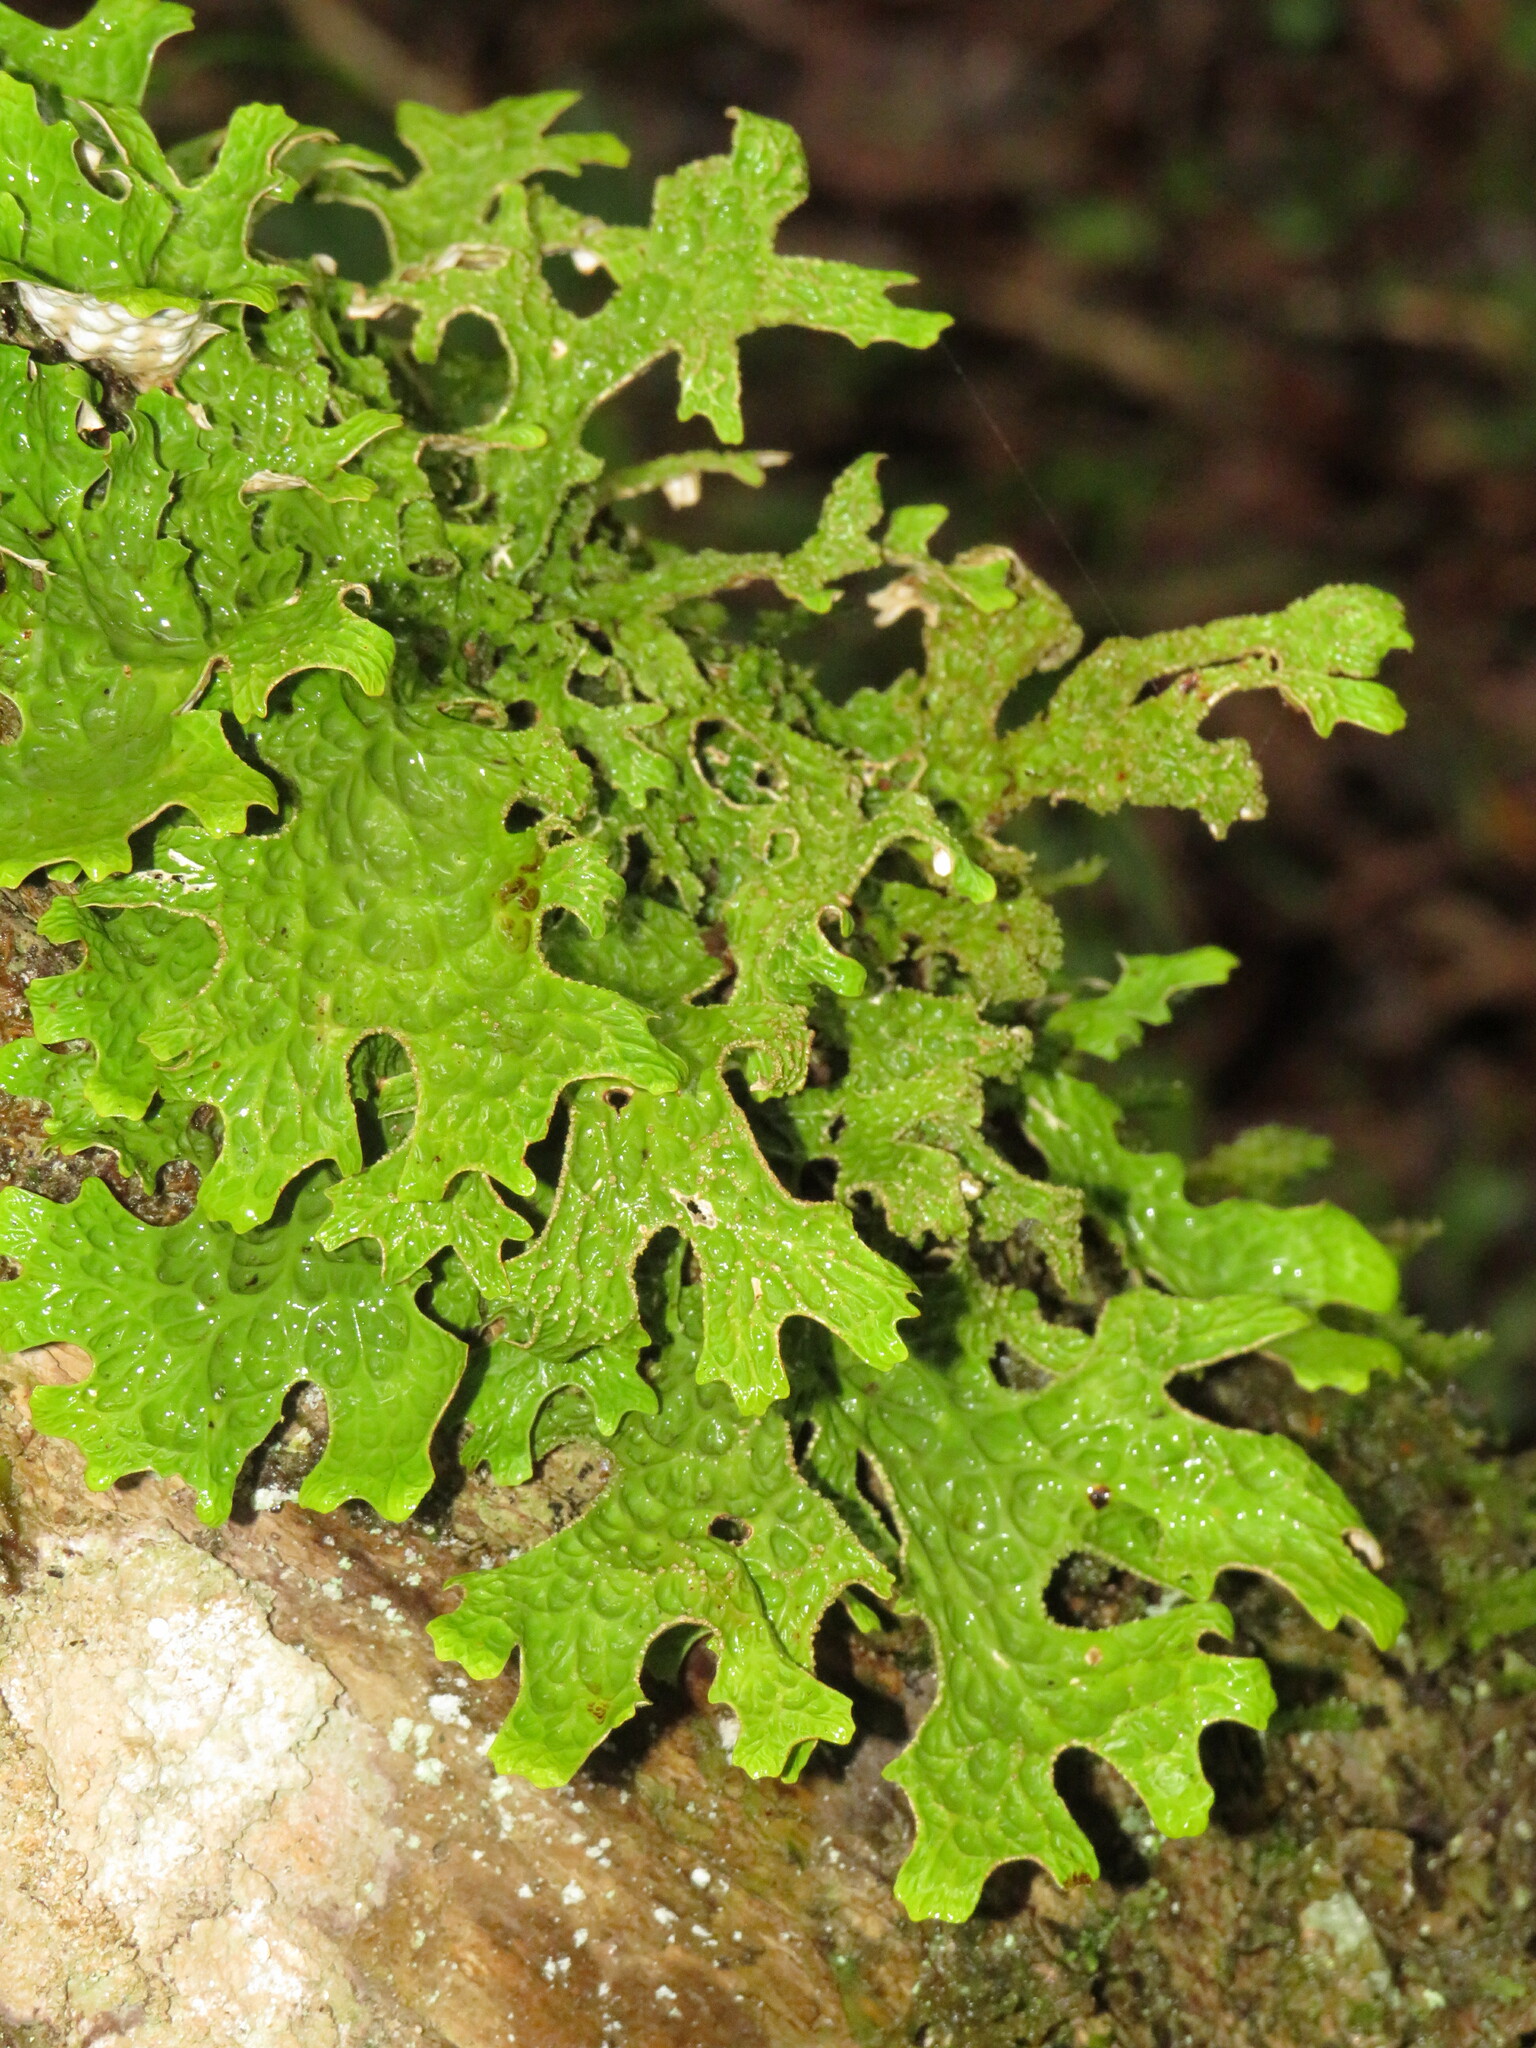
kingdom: Fungi
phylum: Ascomycota
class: Lecanoromycetes
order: Peltigerales
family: Lobariaceae
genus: Lobaria
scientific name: Lobaria pulmonaria
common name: Lungwort
